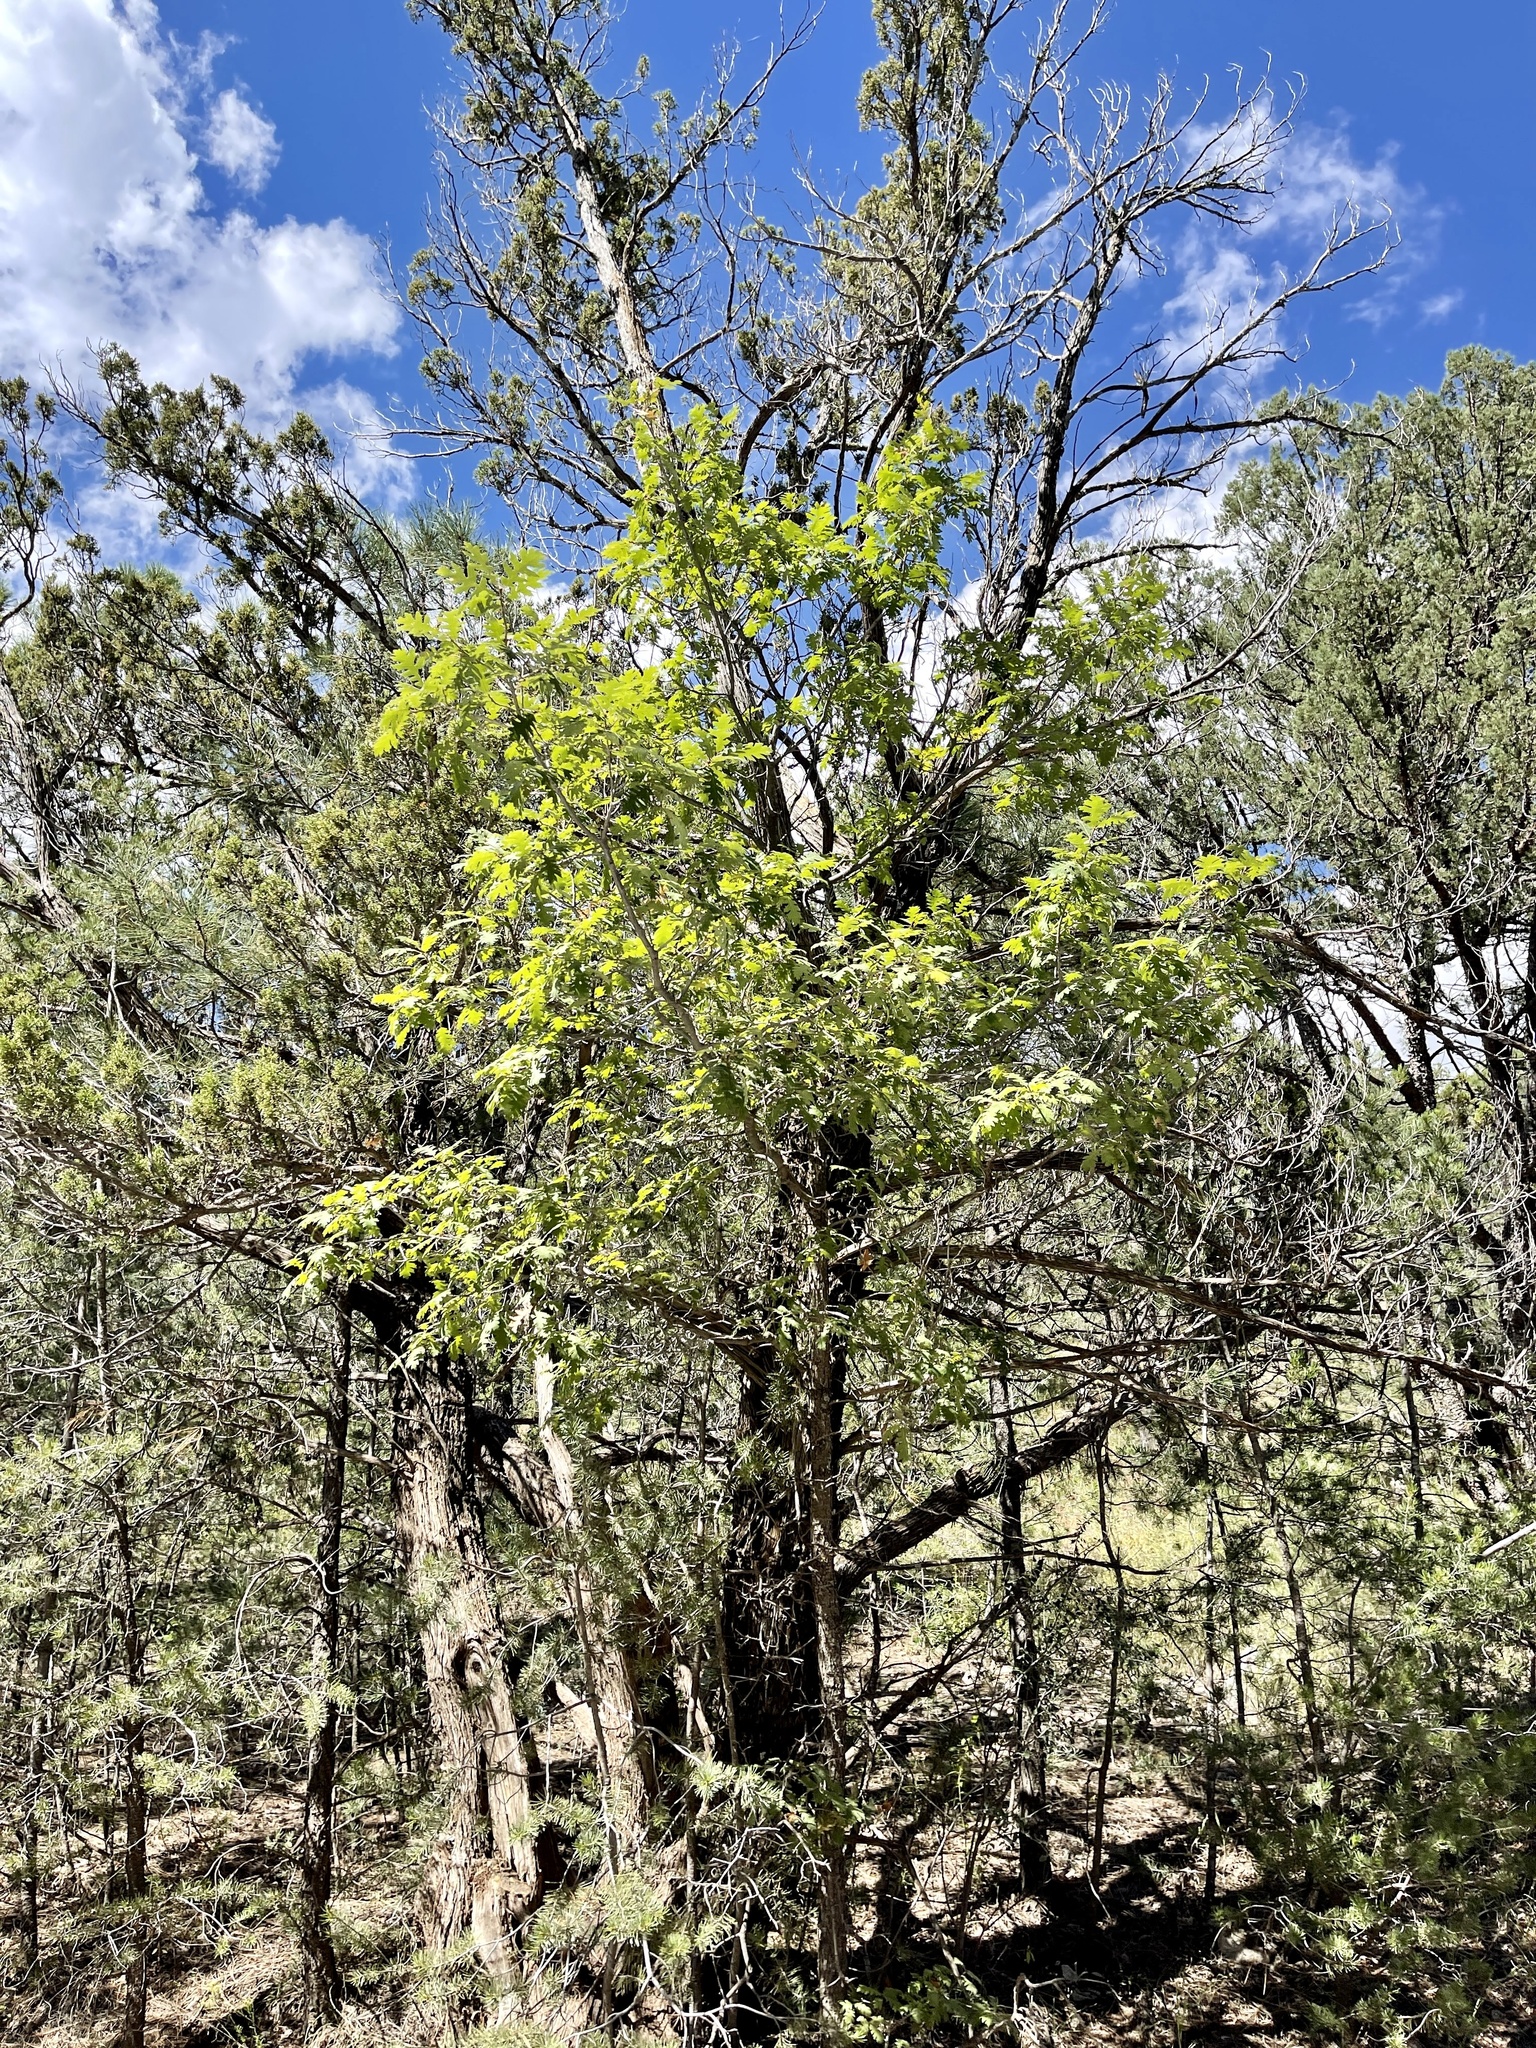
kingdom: Plantae
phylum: Tracheophyta
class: Magnoliopsida
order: Fagales
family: Fagaceae
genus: Quercus
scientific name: Quercus gambelii
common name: Gambel oak
